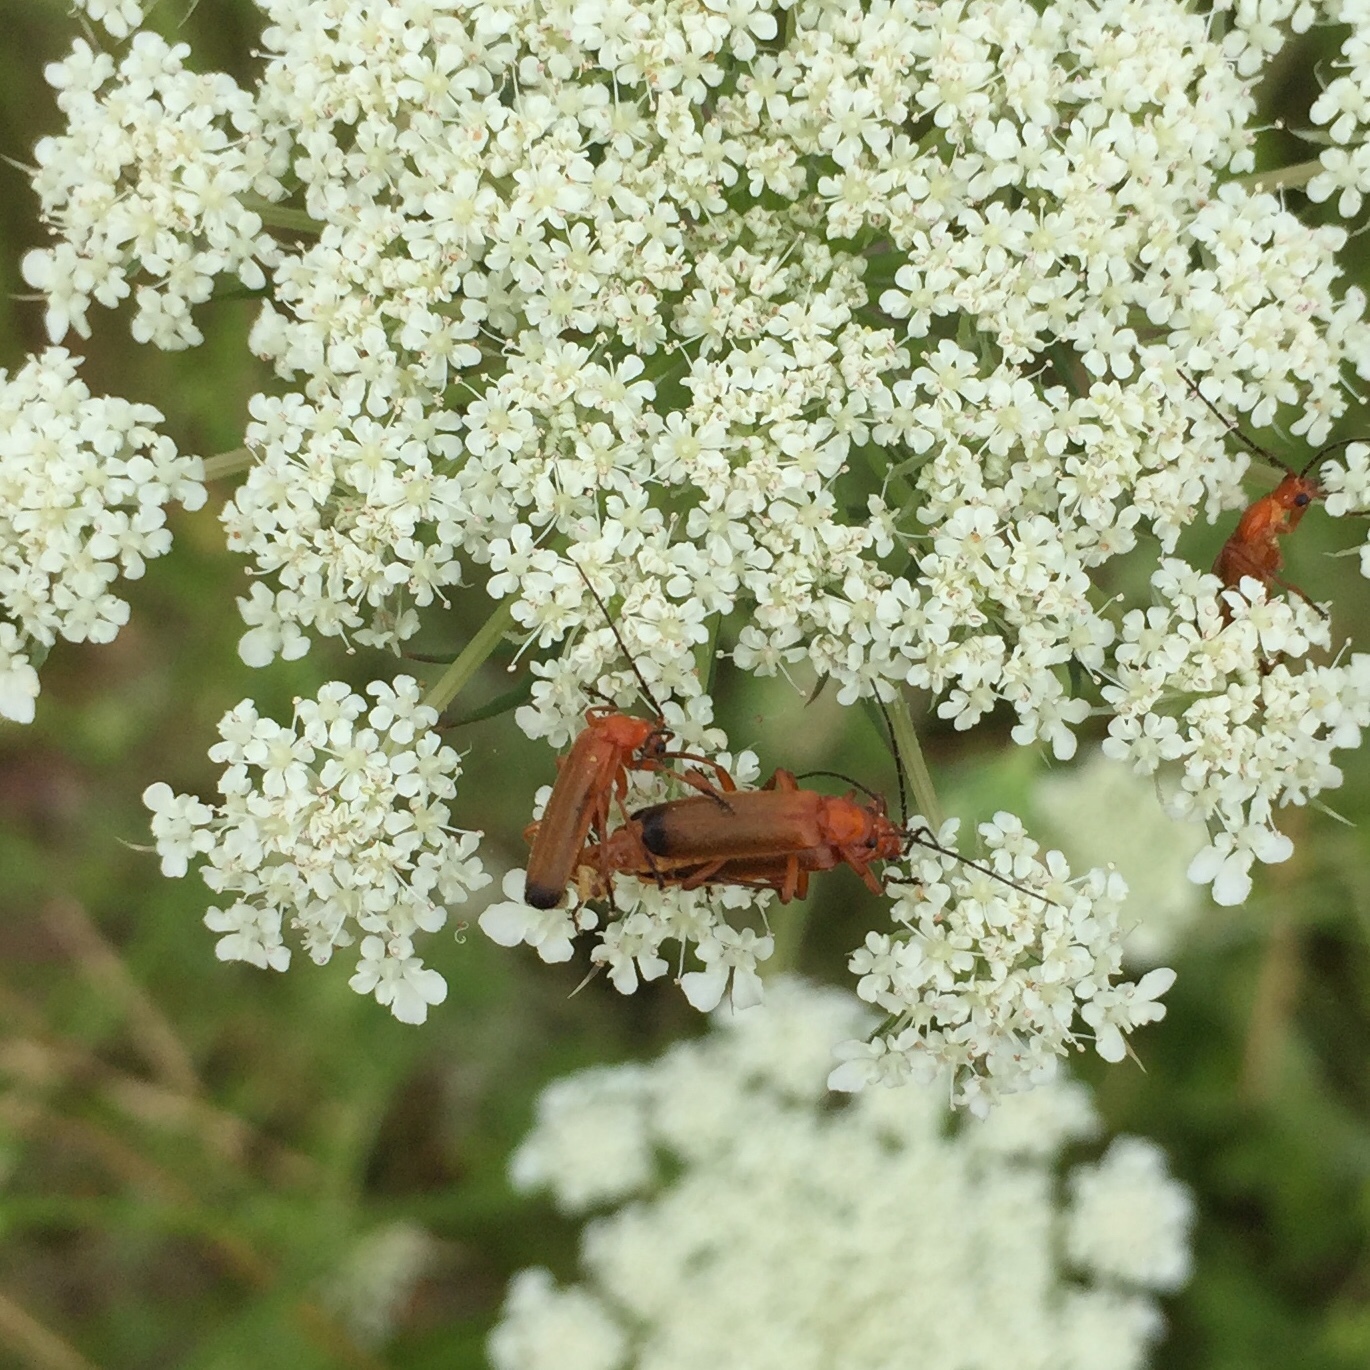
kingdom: Animalia
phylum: Arthropoda
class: Insecta
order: Coleoptera
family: Cantharidae
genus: Rhagonycha
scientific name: Rhagonycha fulva
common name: Common red soldier beetle
